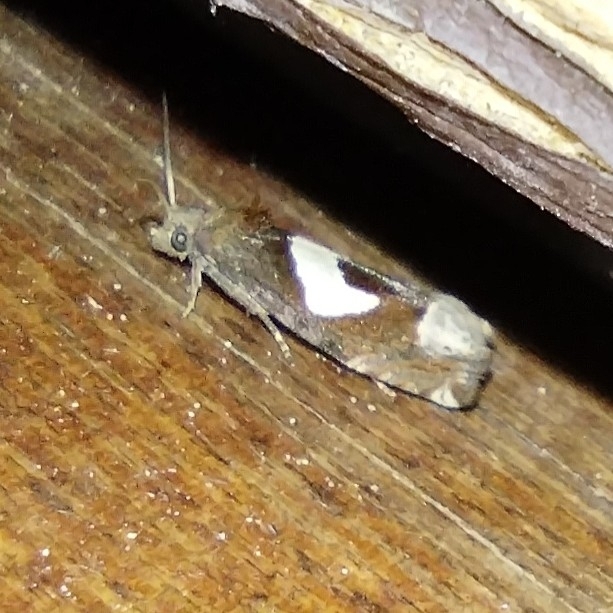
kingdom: Animalia
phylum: Arthropoda
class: Insecta
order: Lepidoptera
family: Tortricidae
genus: Epiblema
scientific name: Epiblema foenella
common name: White-foot bell
